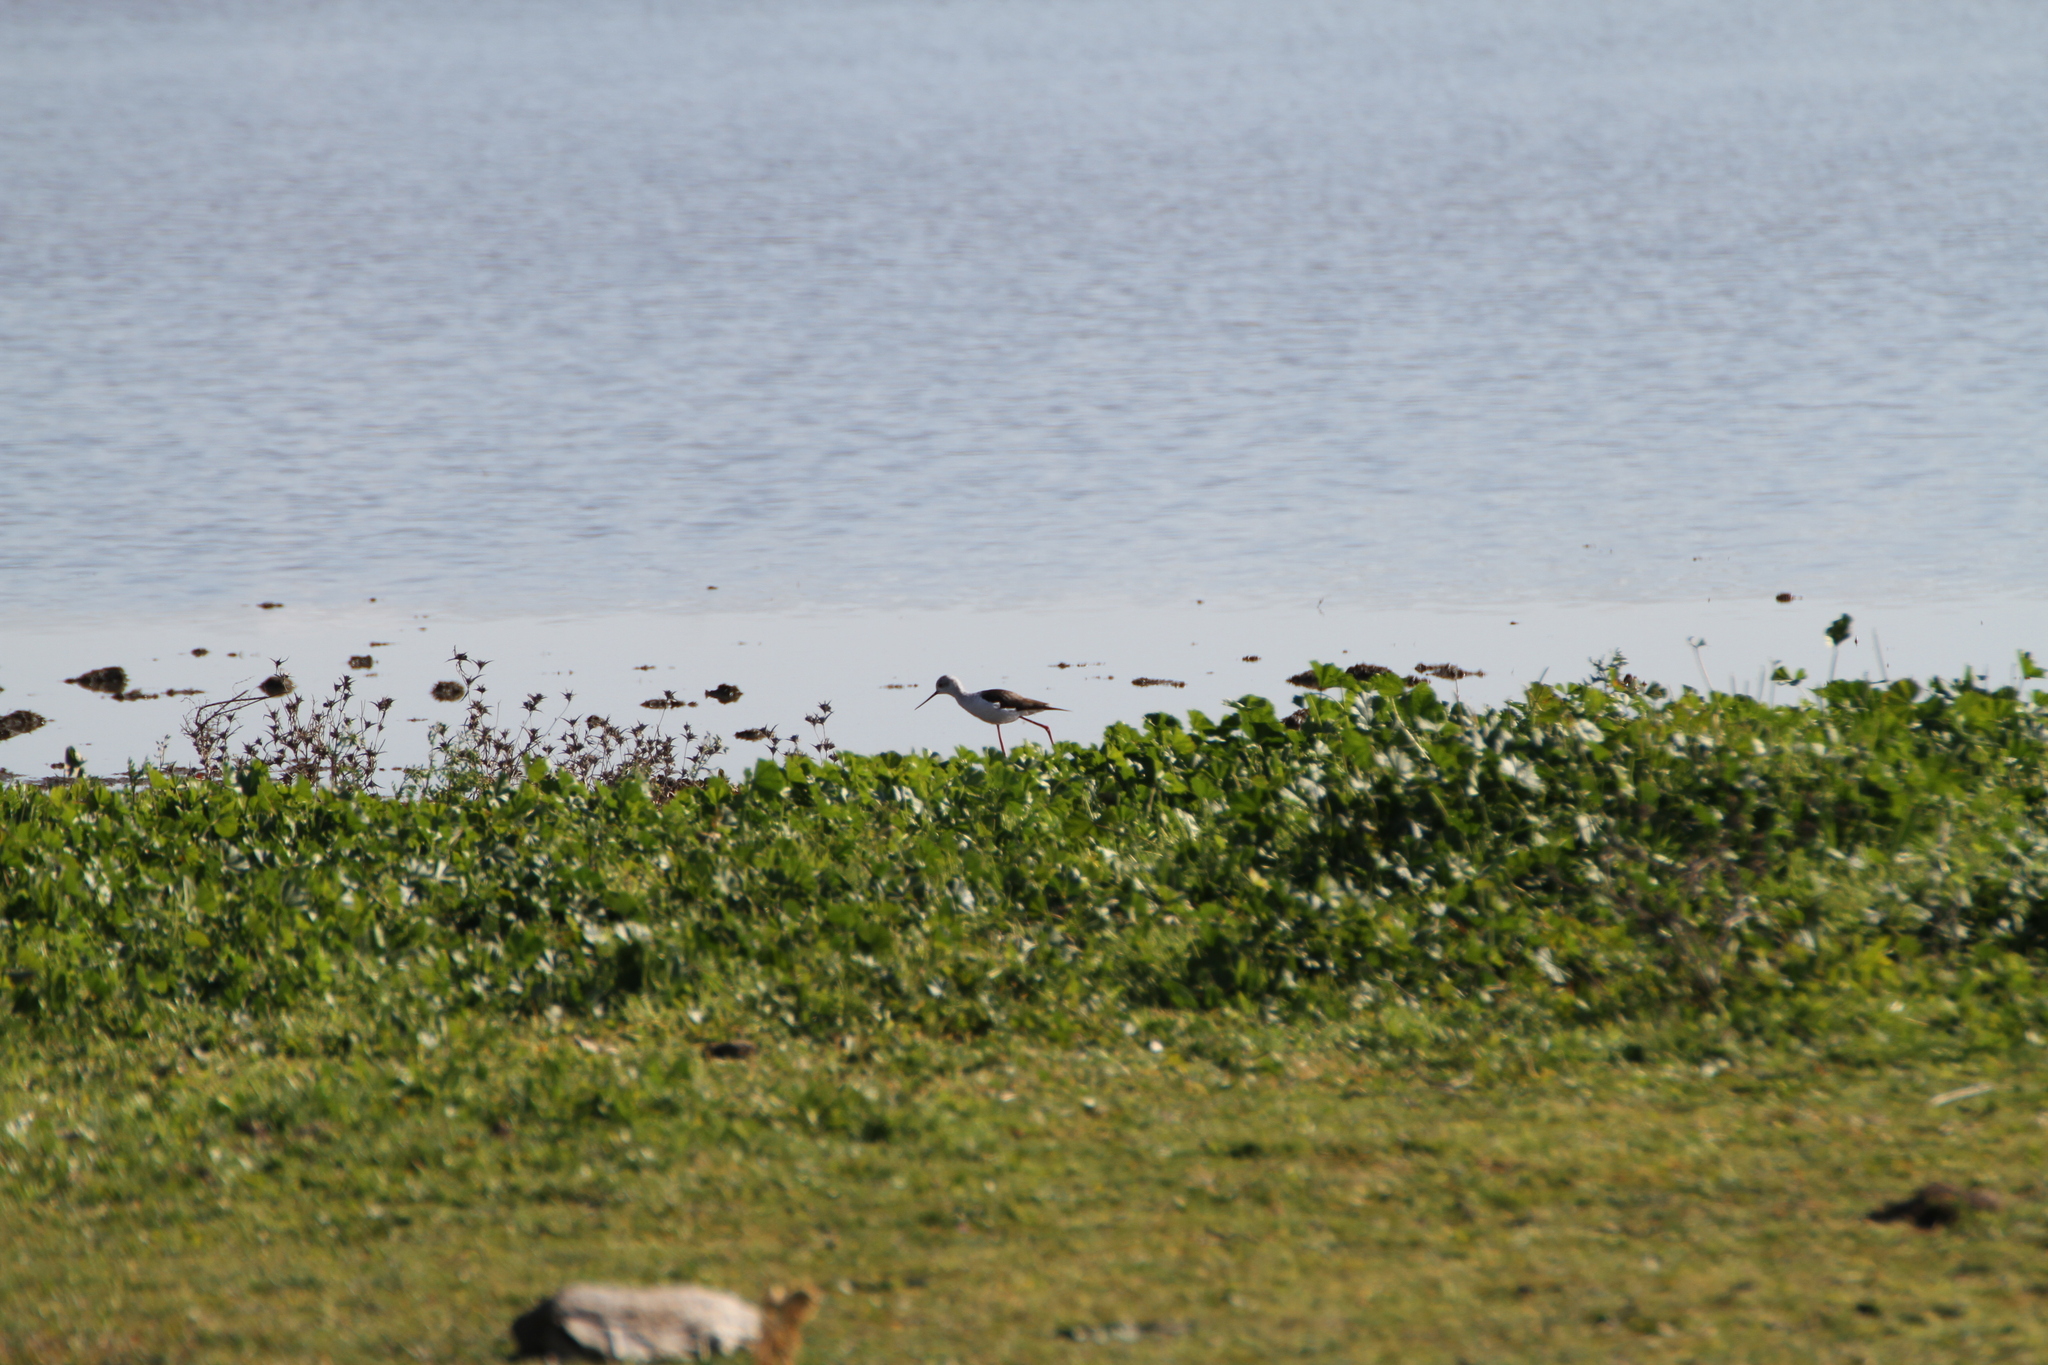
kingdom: Animalia
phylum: Chordata
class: Aves
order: Charadriiformes
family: Recurvirostridae
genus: Himantopus
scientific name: Himantopus himantopus
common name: Black-winged stilt
